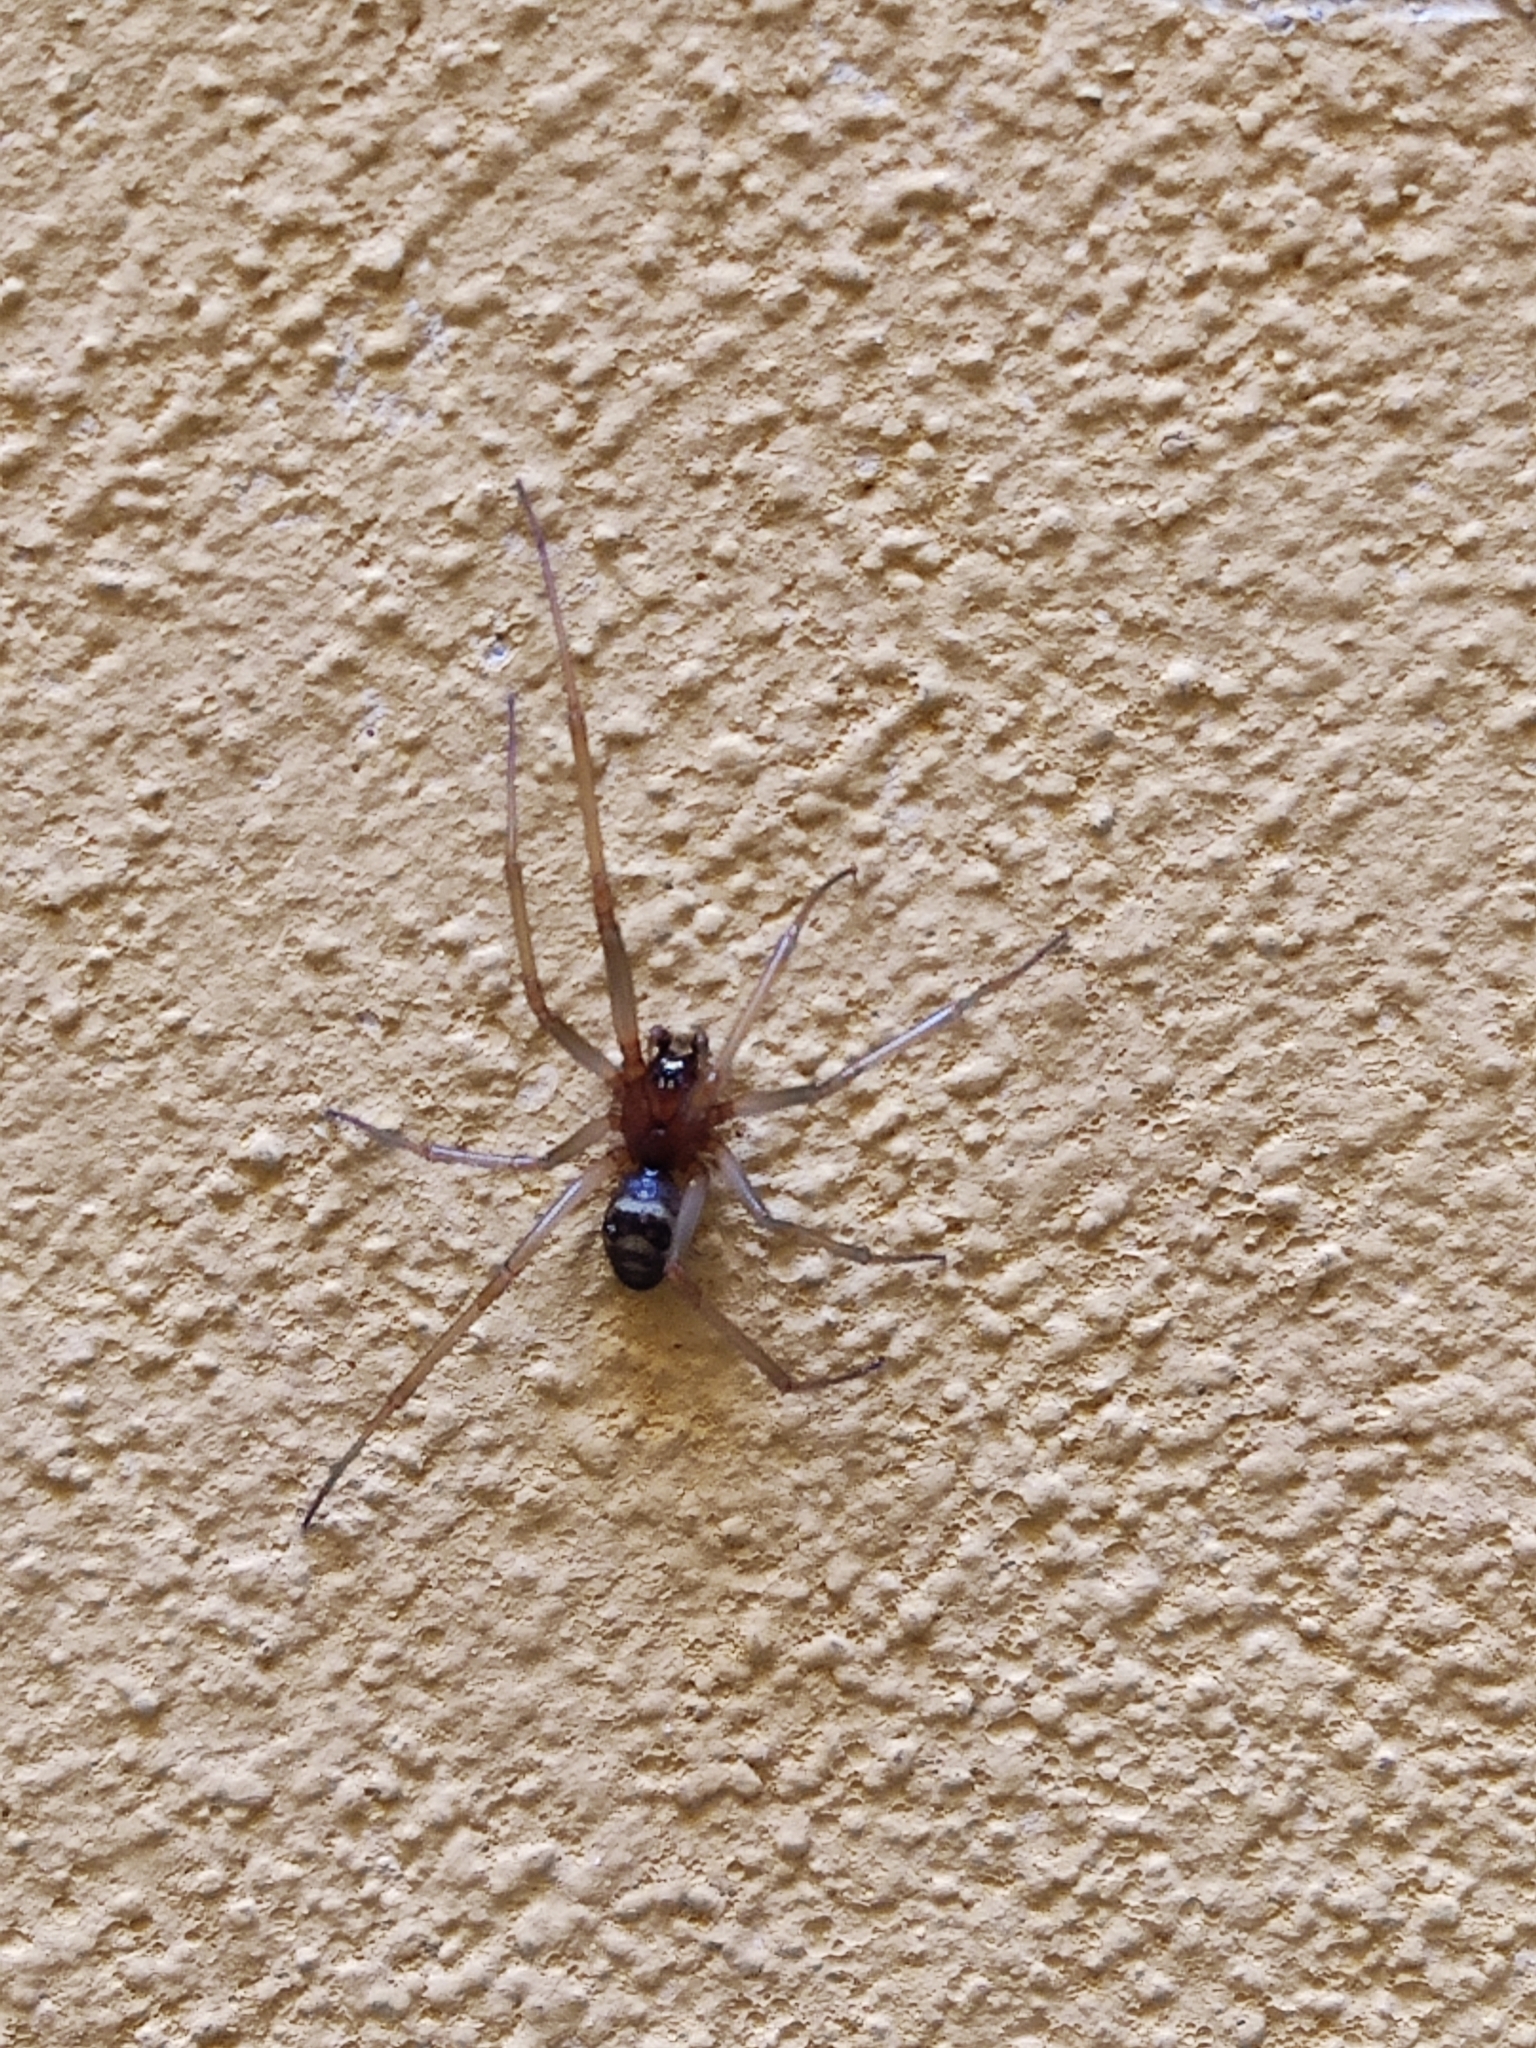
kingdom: Animalia
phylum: Arthropoda
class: Arachnida
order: Araneae
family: Theridiidae
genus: Steatoda
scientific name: Steatoda grossa
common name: False black widow
